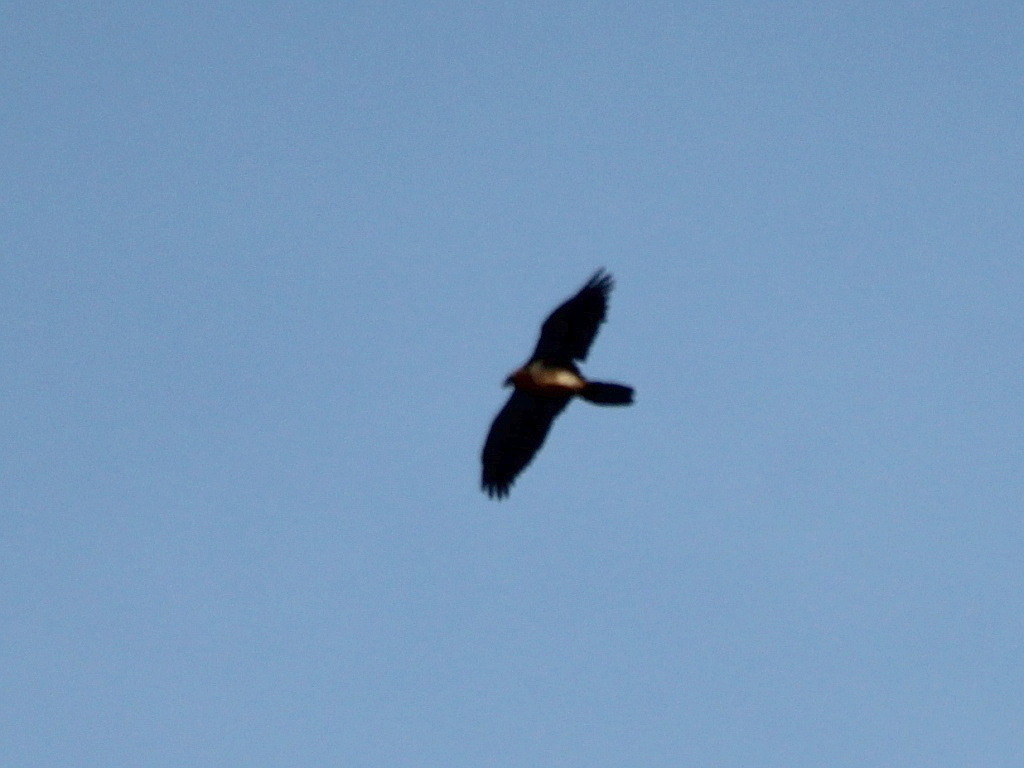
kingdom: Animalia
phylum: Chordata
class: Aves
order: Accipitriformes
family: Accipitridae
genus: Gypaetus
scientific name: Gypaetus barbatus
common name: Bearded vulture
